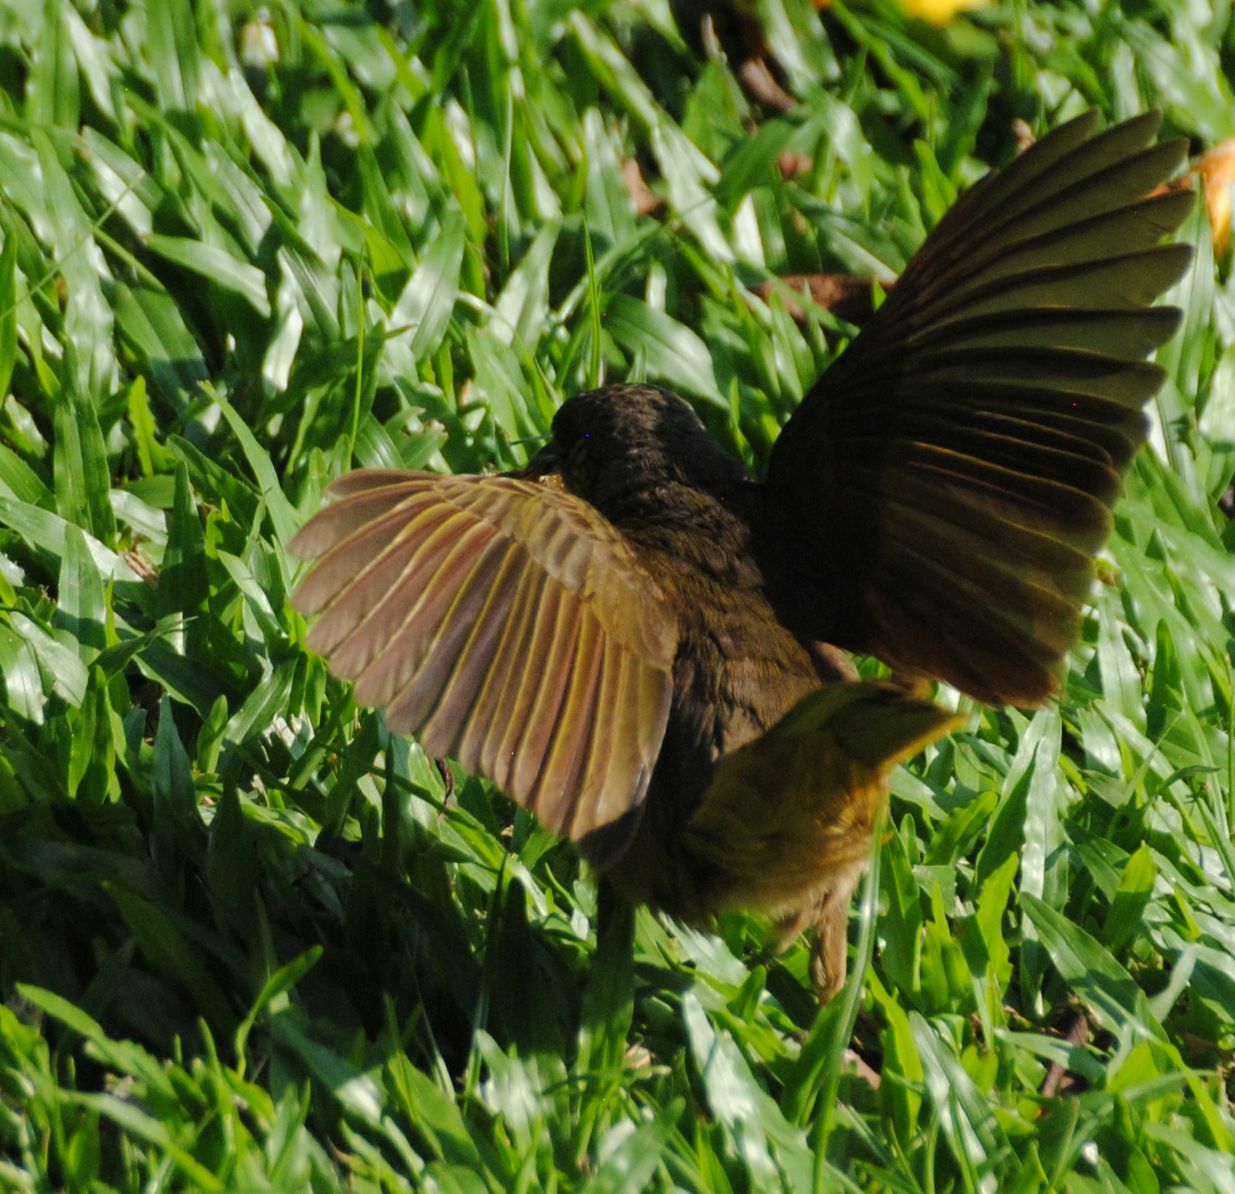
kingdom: Animalia
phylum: Chordata
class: Aves
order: Passeriformes
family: Pycnonotidae
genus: Pycnonotus
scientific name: Pycnonotus plumosus
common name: Olive-winged bulbul
